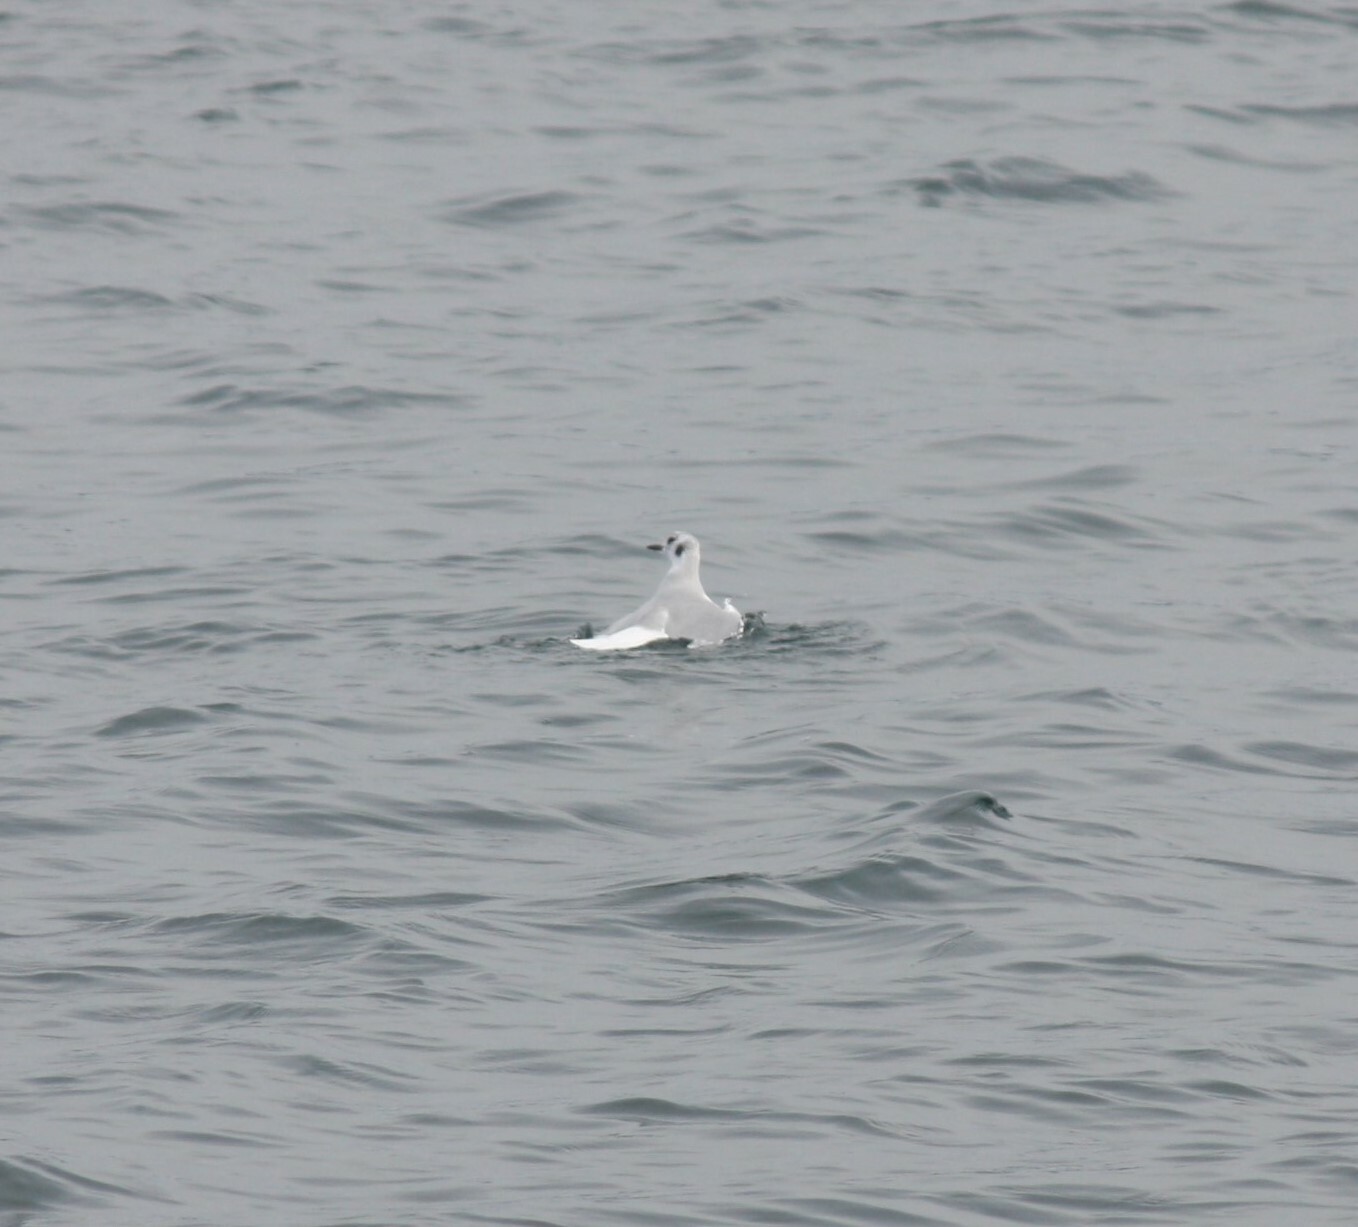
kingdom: Animalia
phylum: Chordata
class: Aves
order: Charadriiformes
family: Laridae
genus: Chroicocephalus
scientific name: Chroicocephalus philadelphia
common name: Bonaparte's gull
